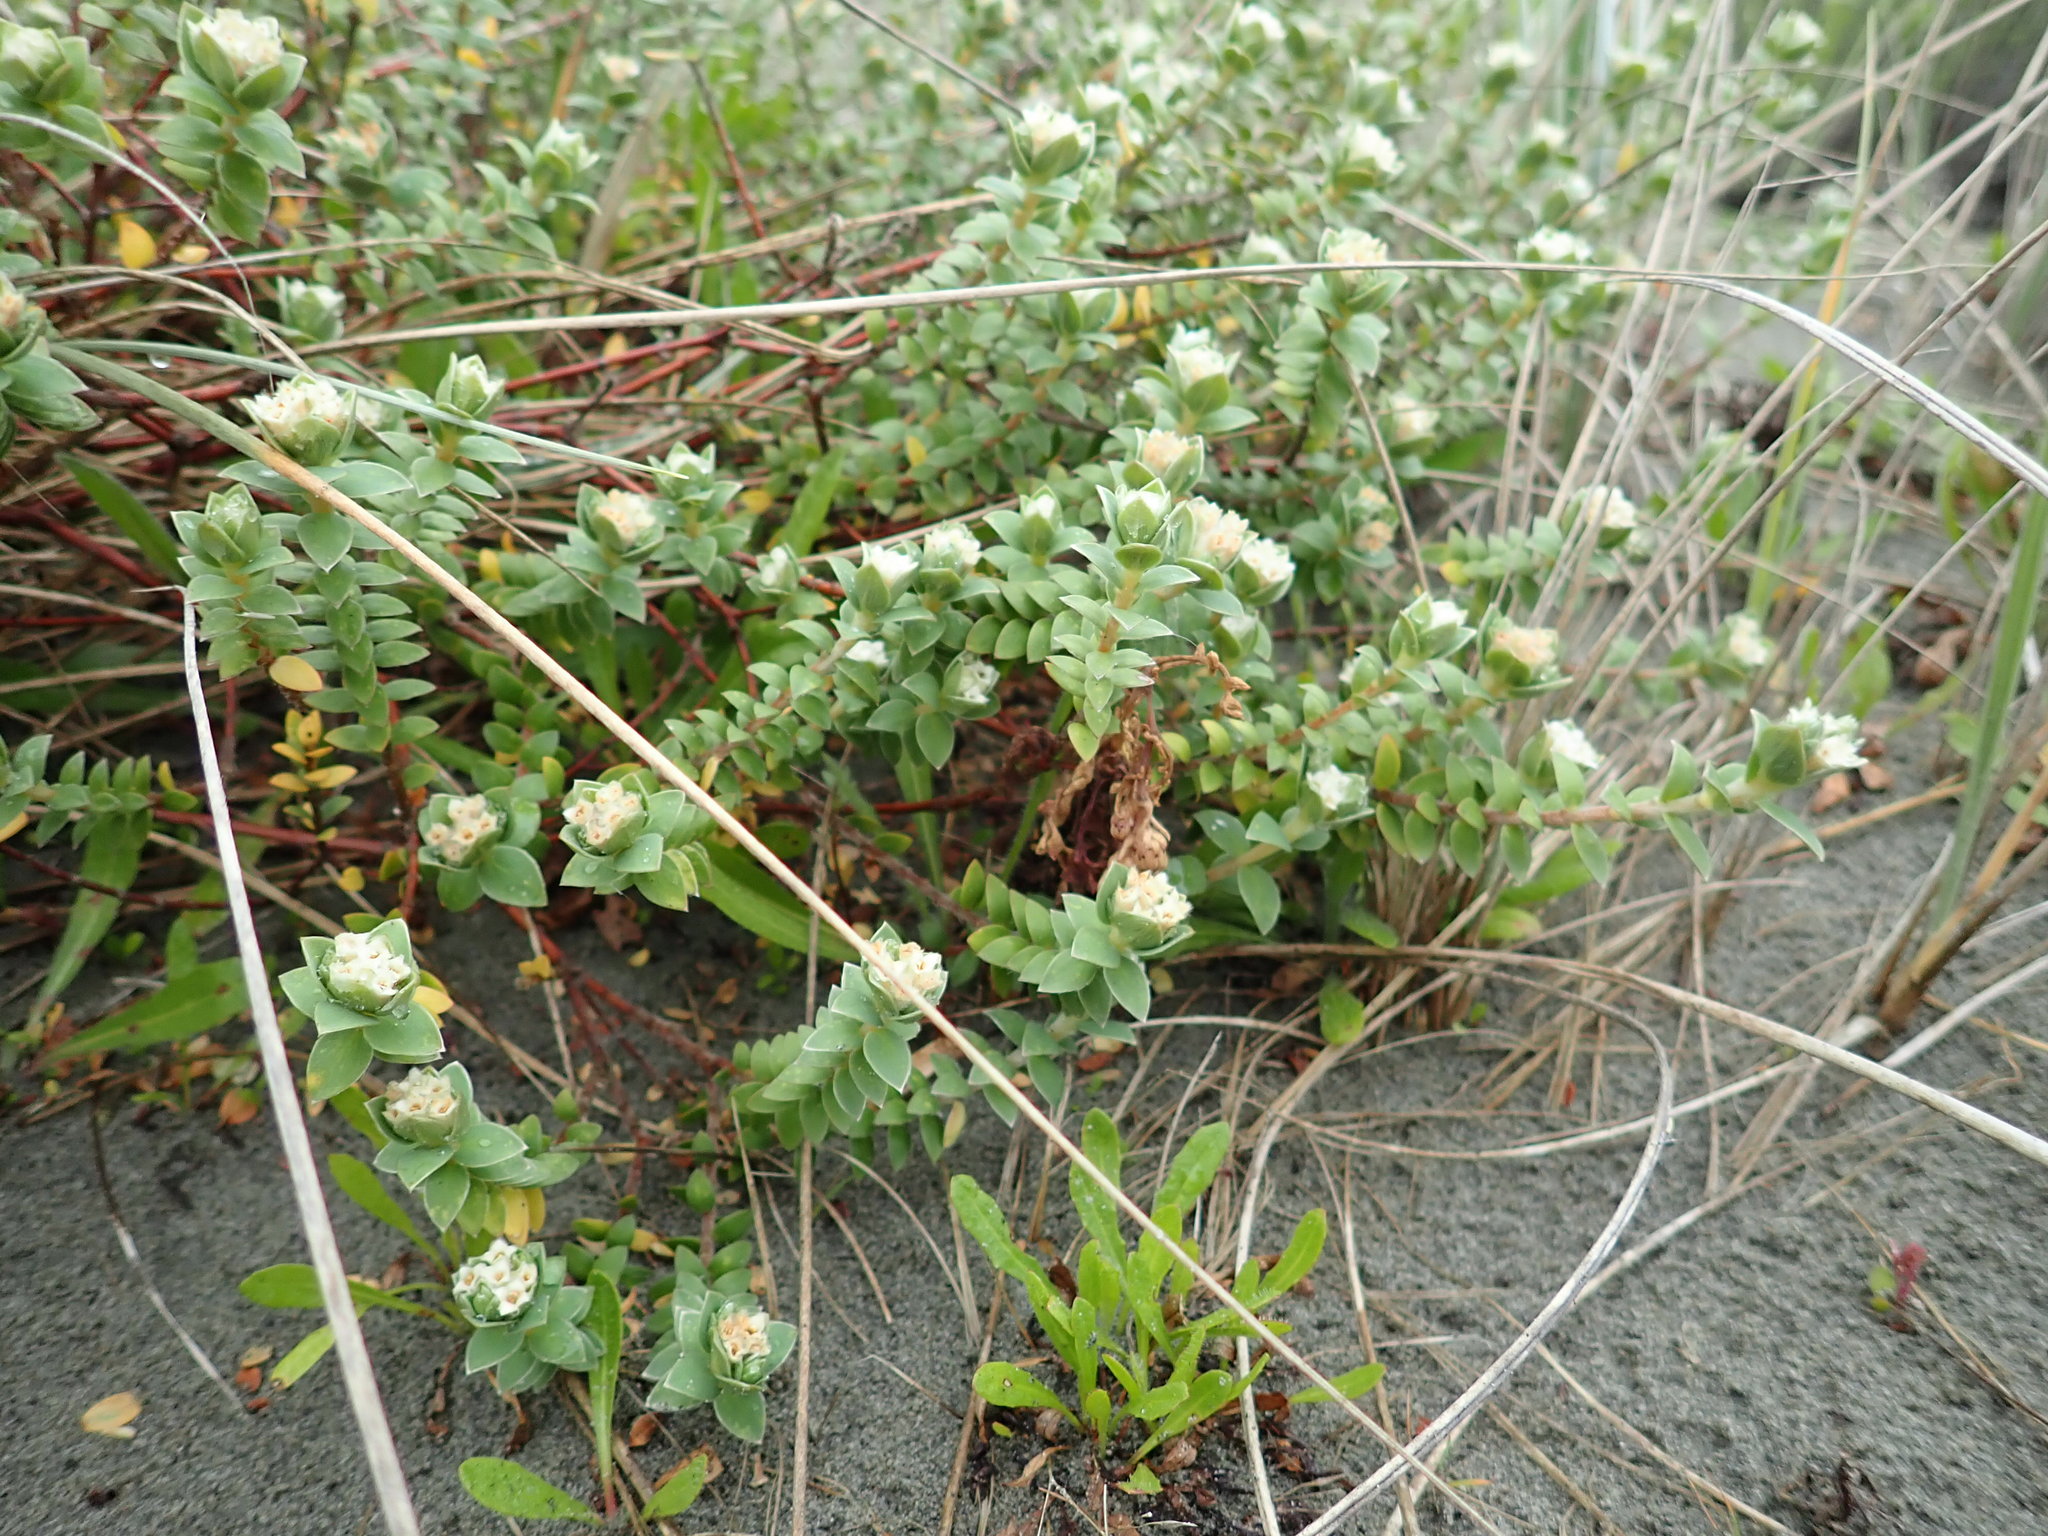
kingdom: Plantae
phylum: Tracheophyta
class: Magnoliopsida
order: Malvales
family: Thymelaeaceae
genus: Pimelea
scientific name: Pimelea villosa
